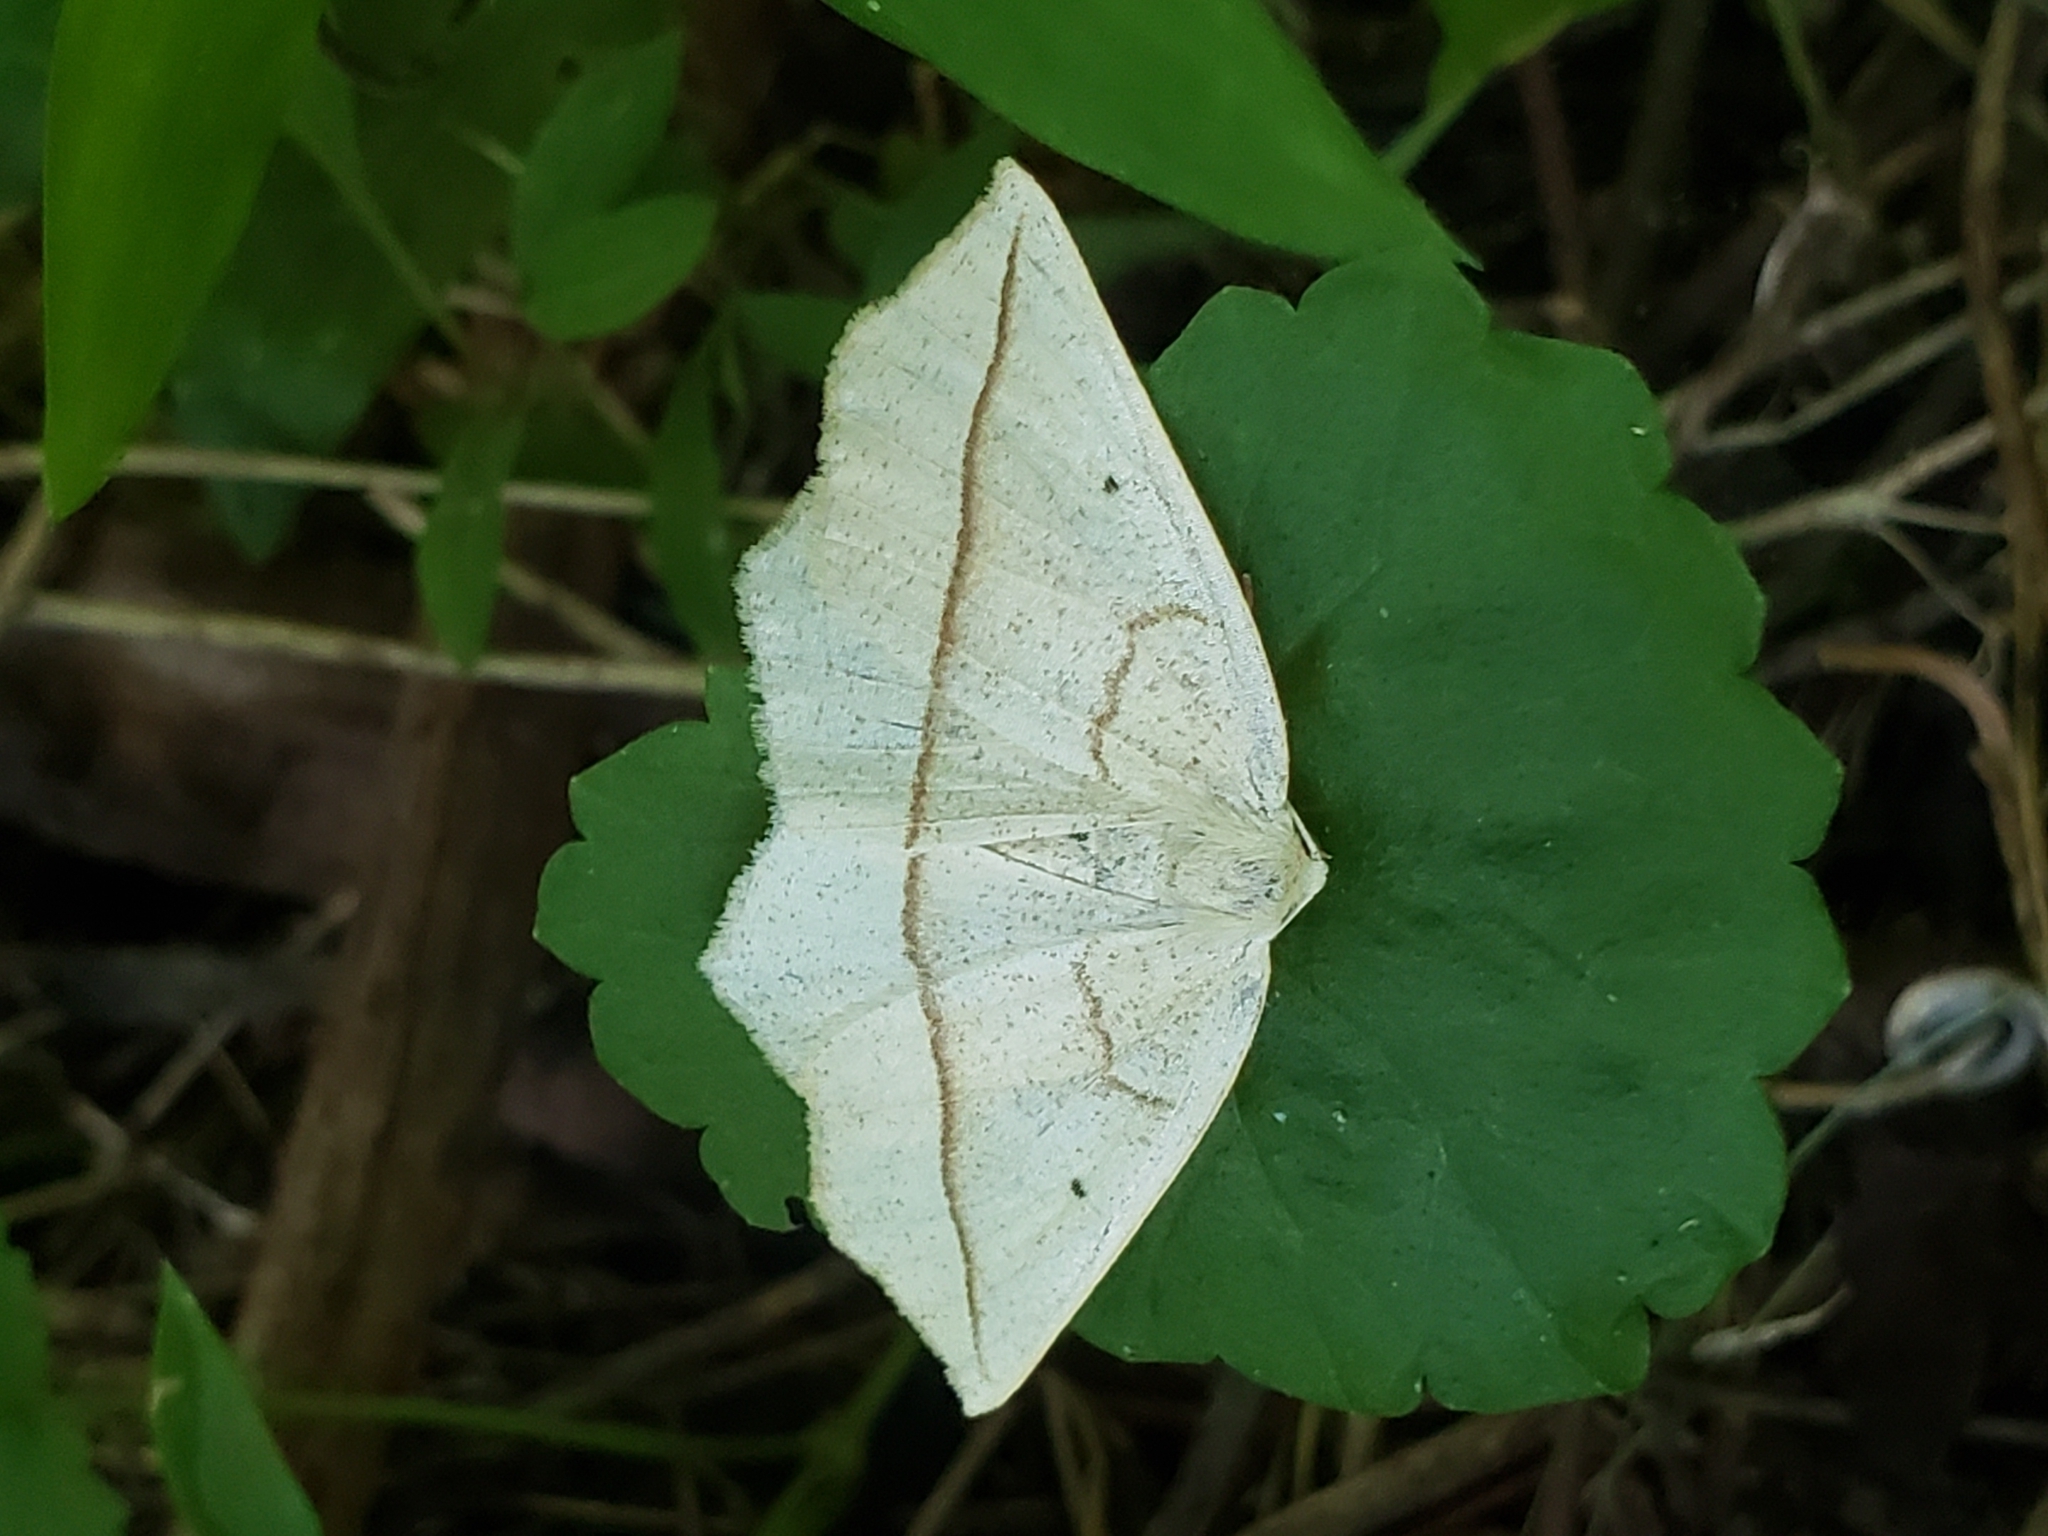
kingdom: Animalia
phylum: Arthropoda
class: Insecta
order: Lepidoptera
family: Geometridae
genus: Eusarca
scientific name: Eusarca confusaria
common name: Confused eusarca
